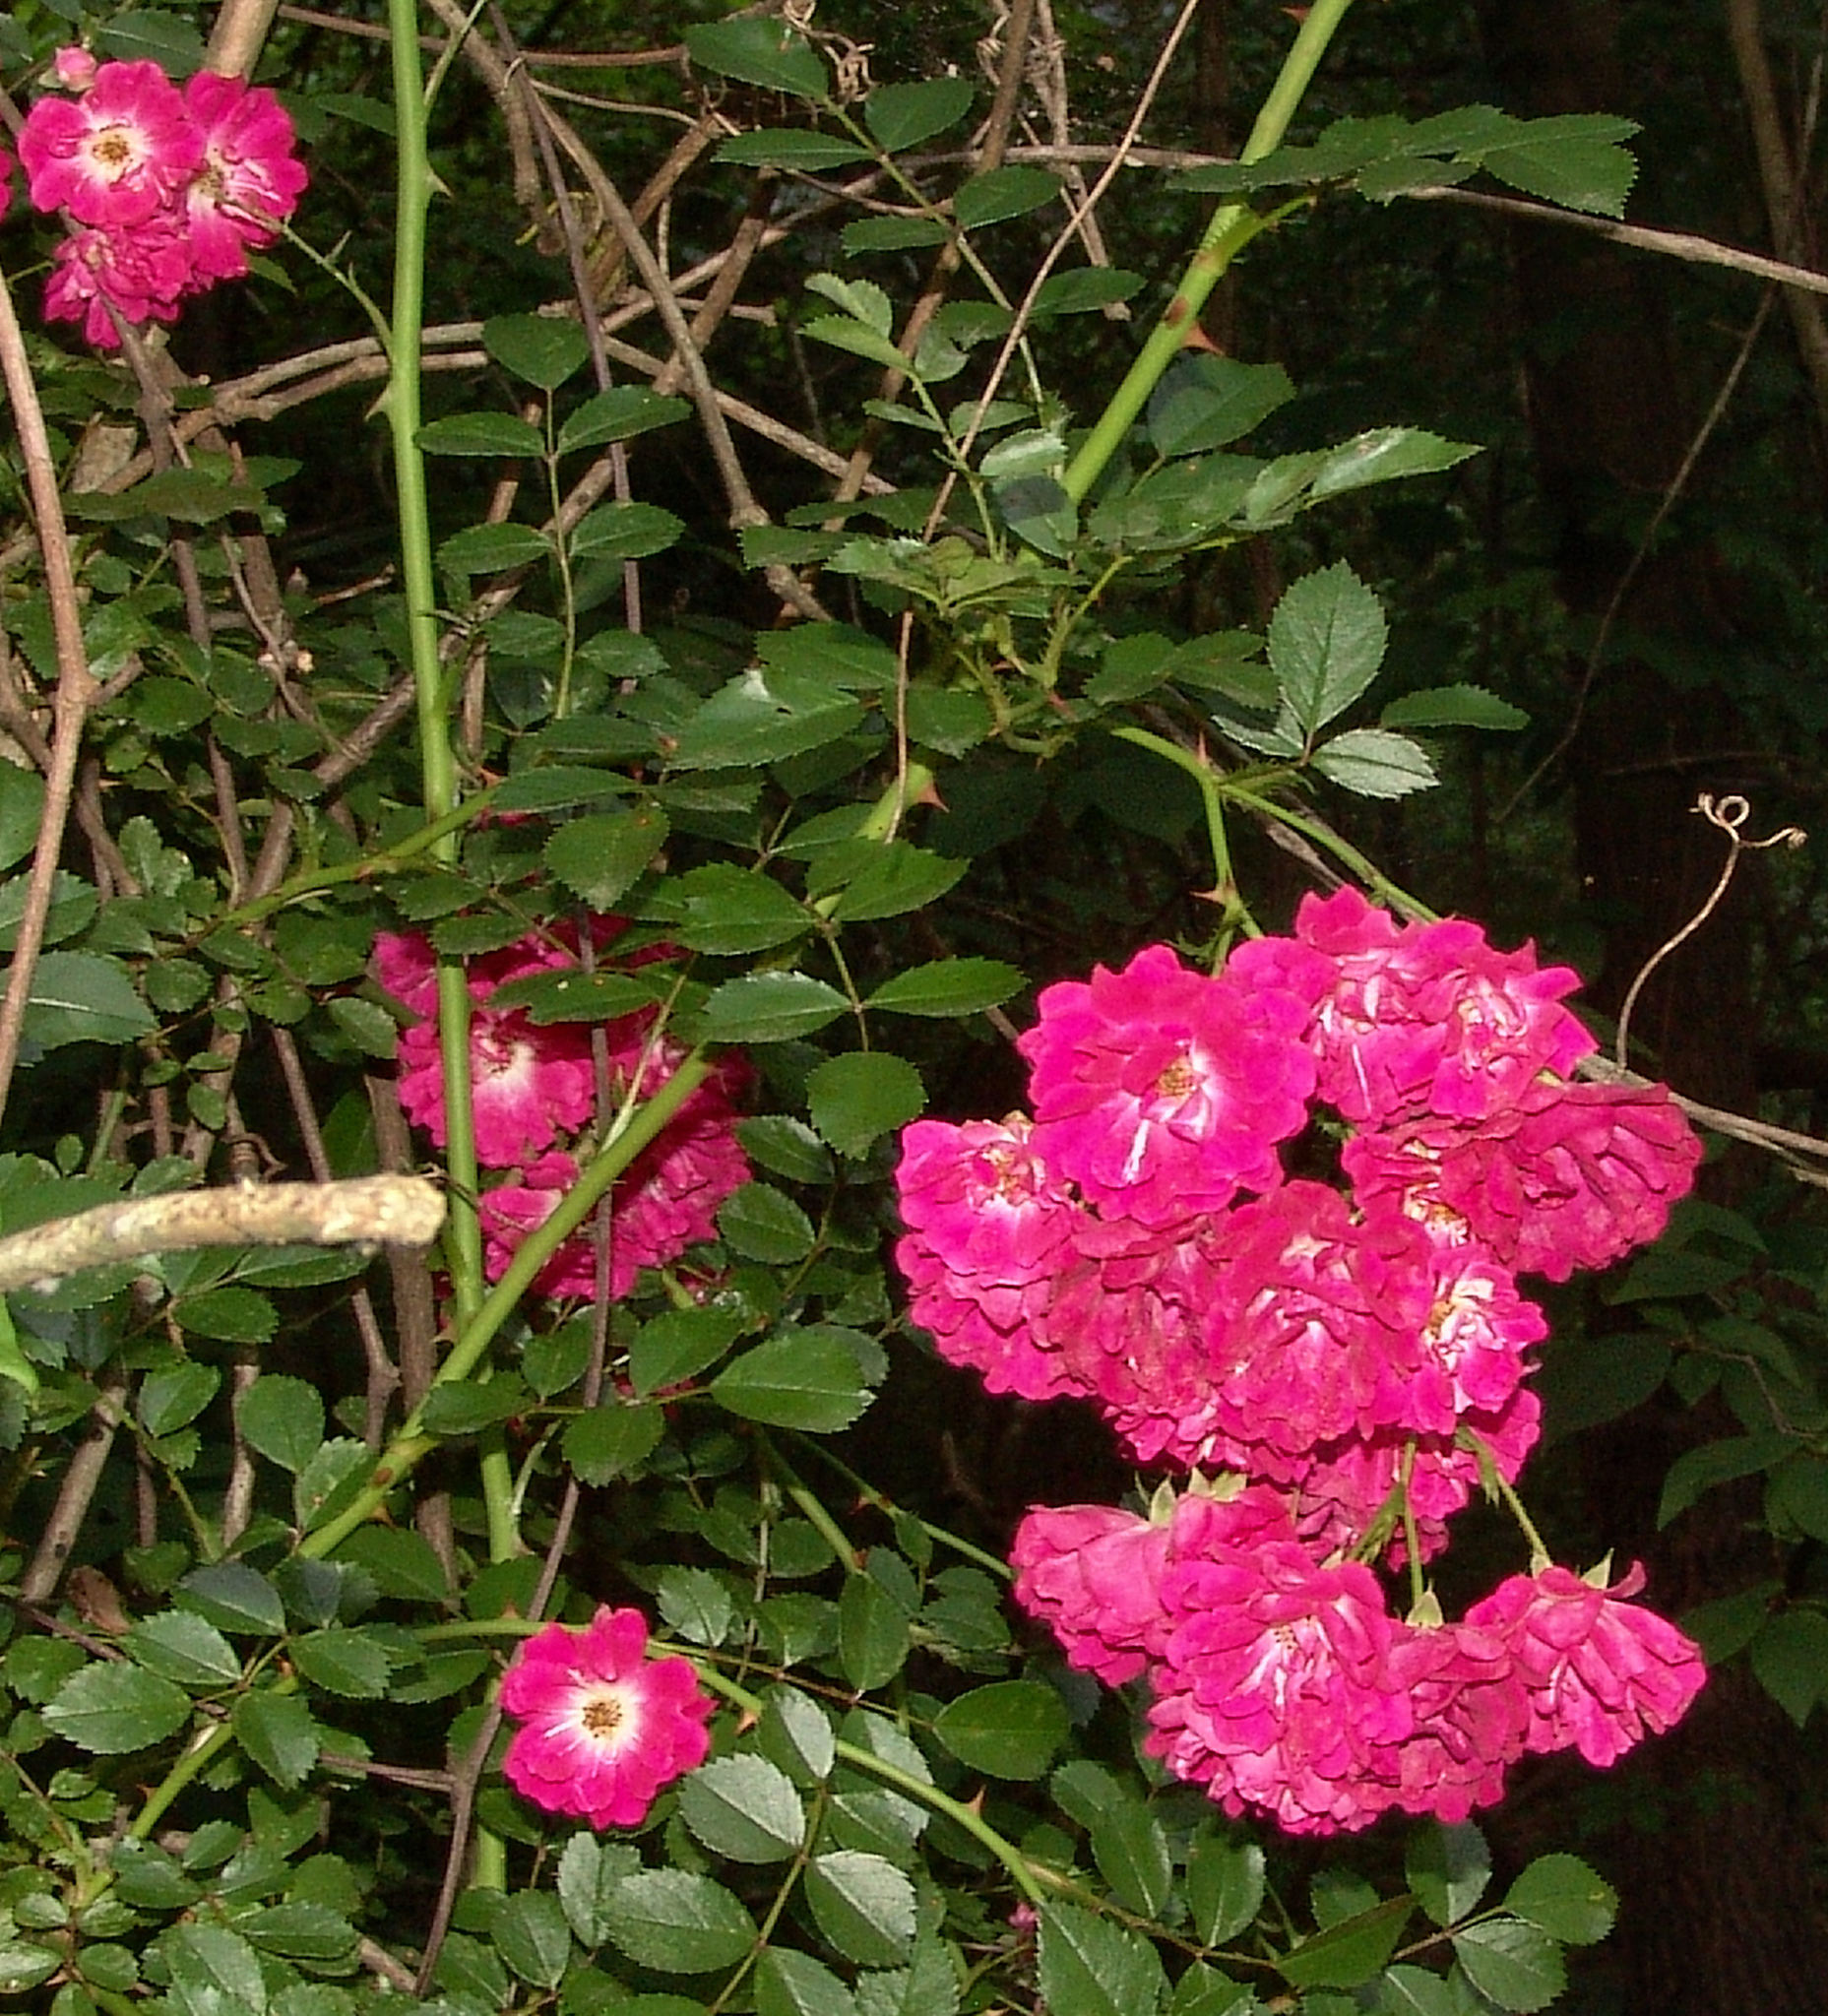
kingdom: Plantae
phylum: Tracheophyta
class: Magnoliopsida
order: Rosales
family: Rosaceae
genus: Rosa
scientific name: Rosa
